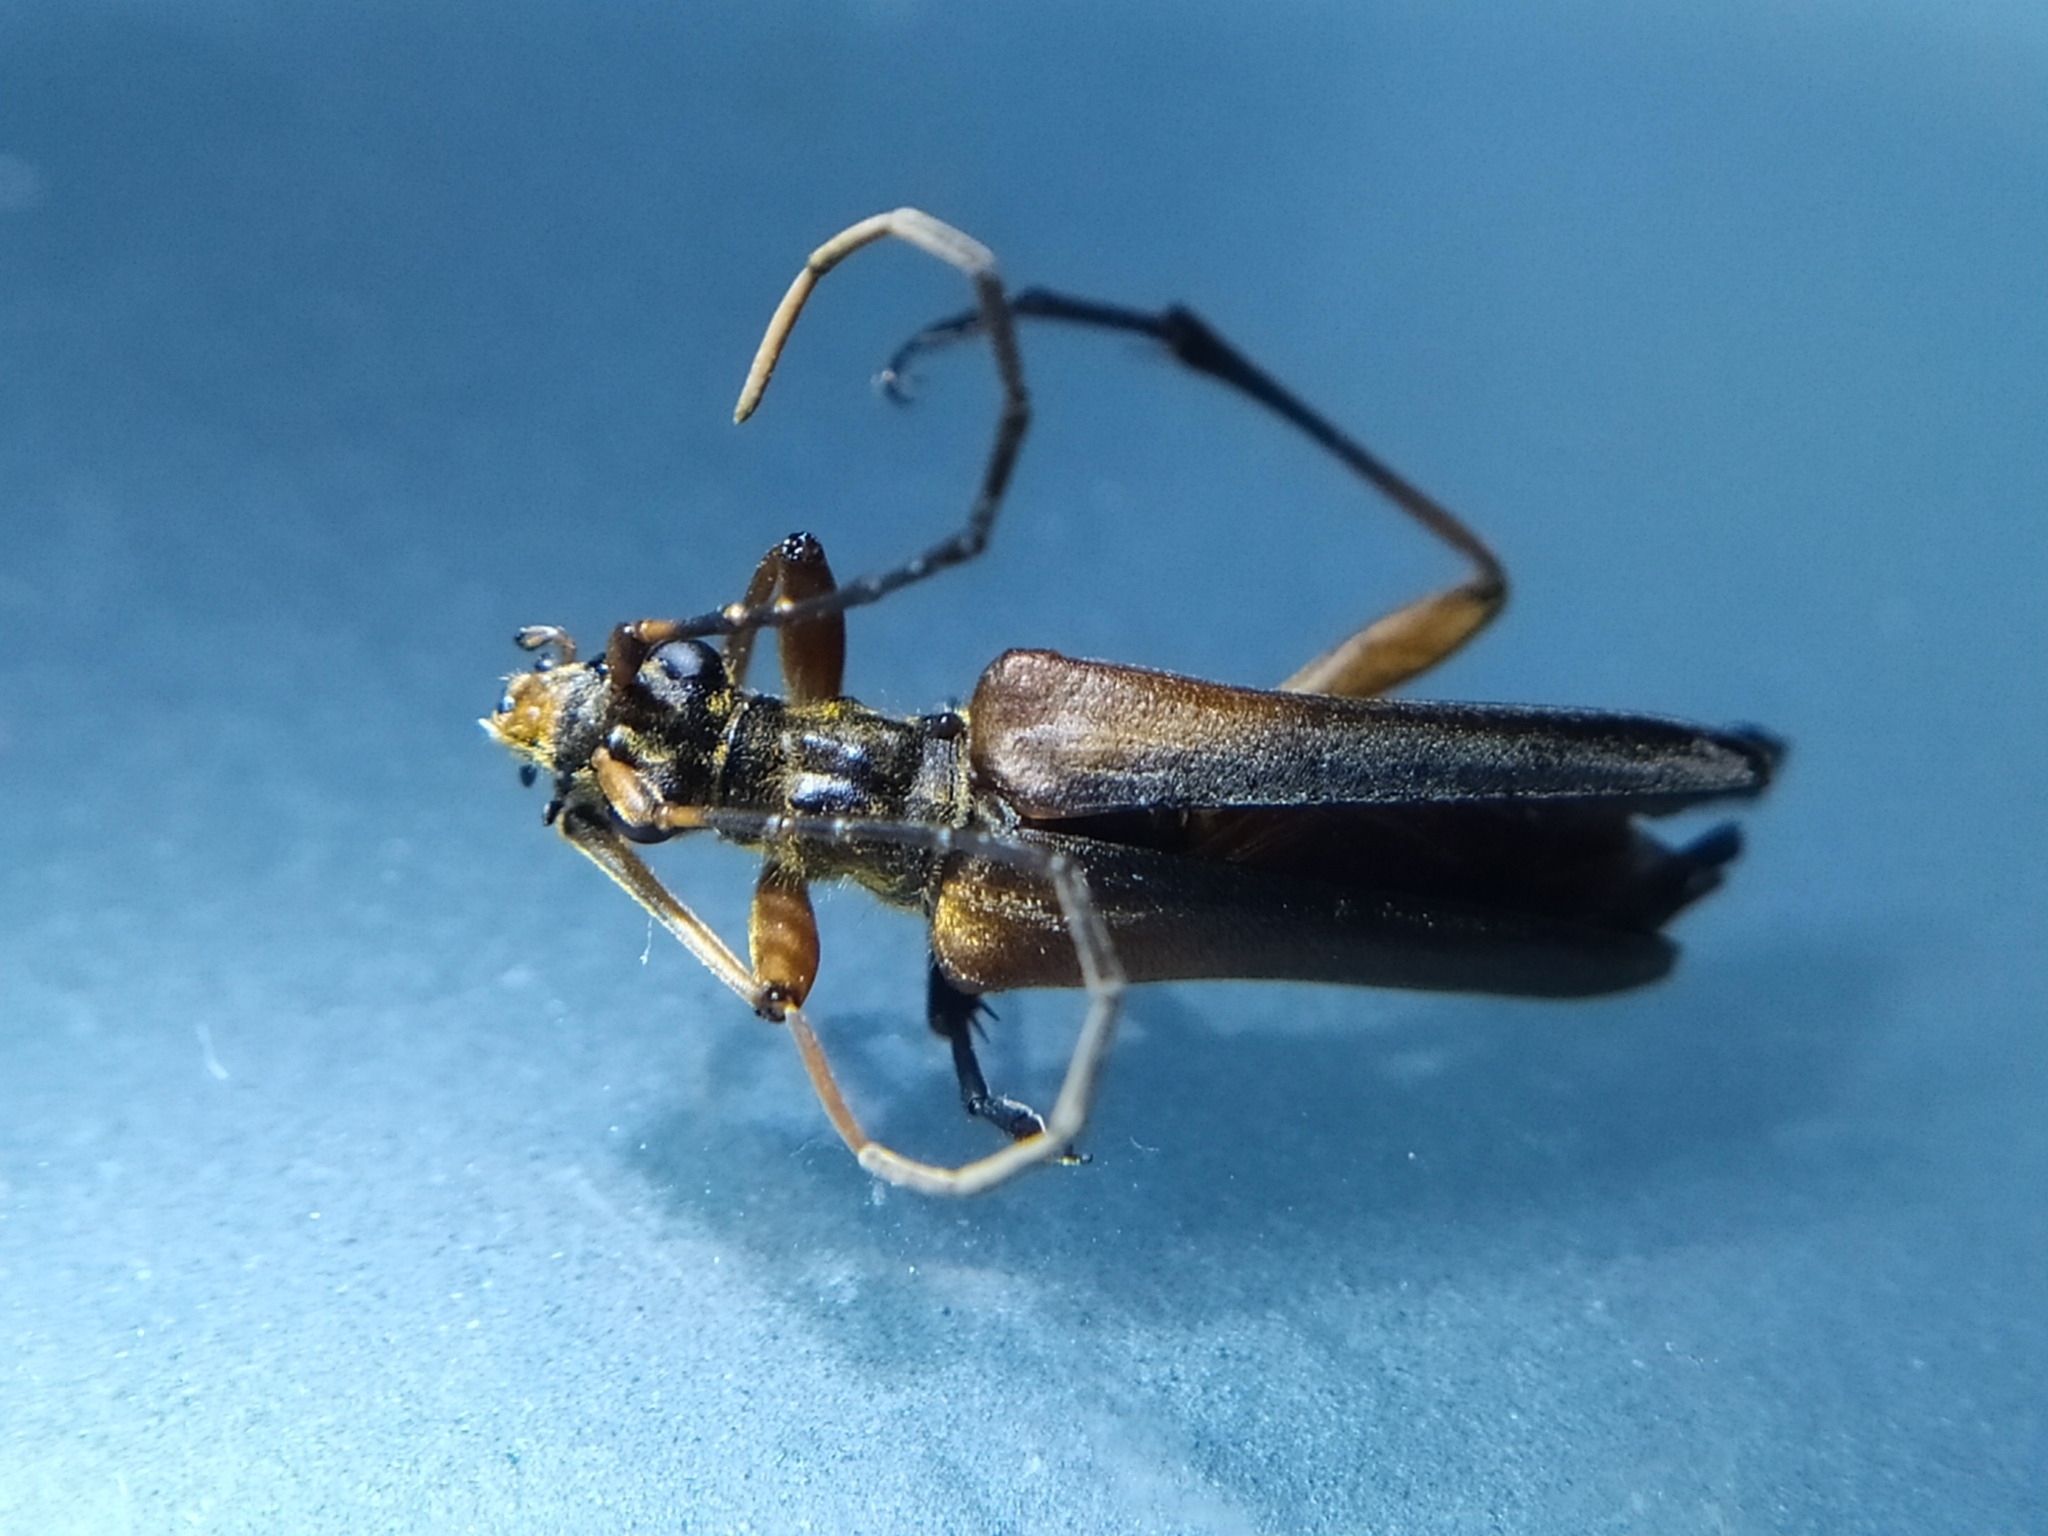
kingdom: Animalia
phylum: Arthropoda
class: Insecta
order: Coleoptera
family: Cerambycidae
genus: Stenocorus
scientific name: Stenocorus meridianus
